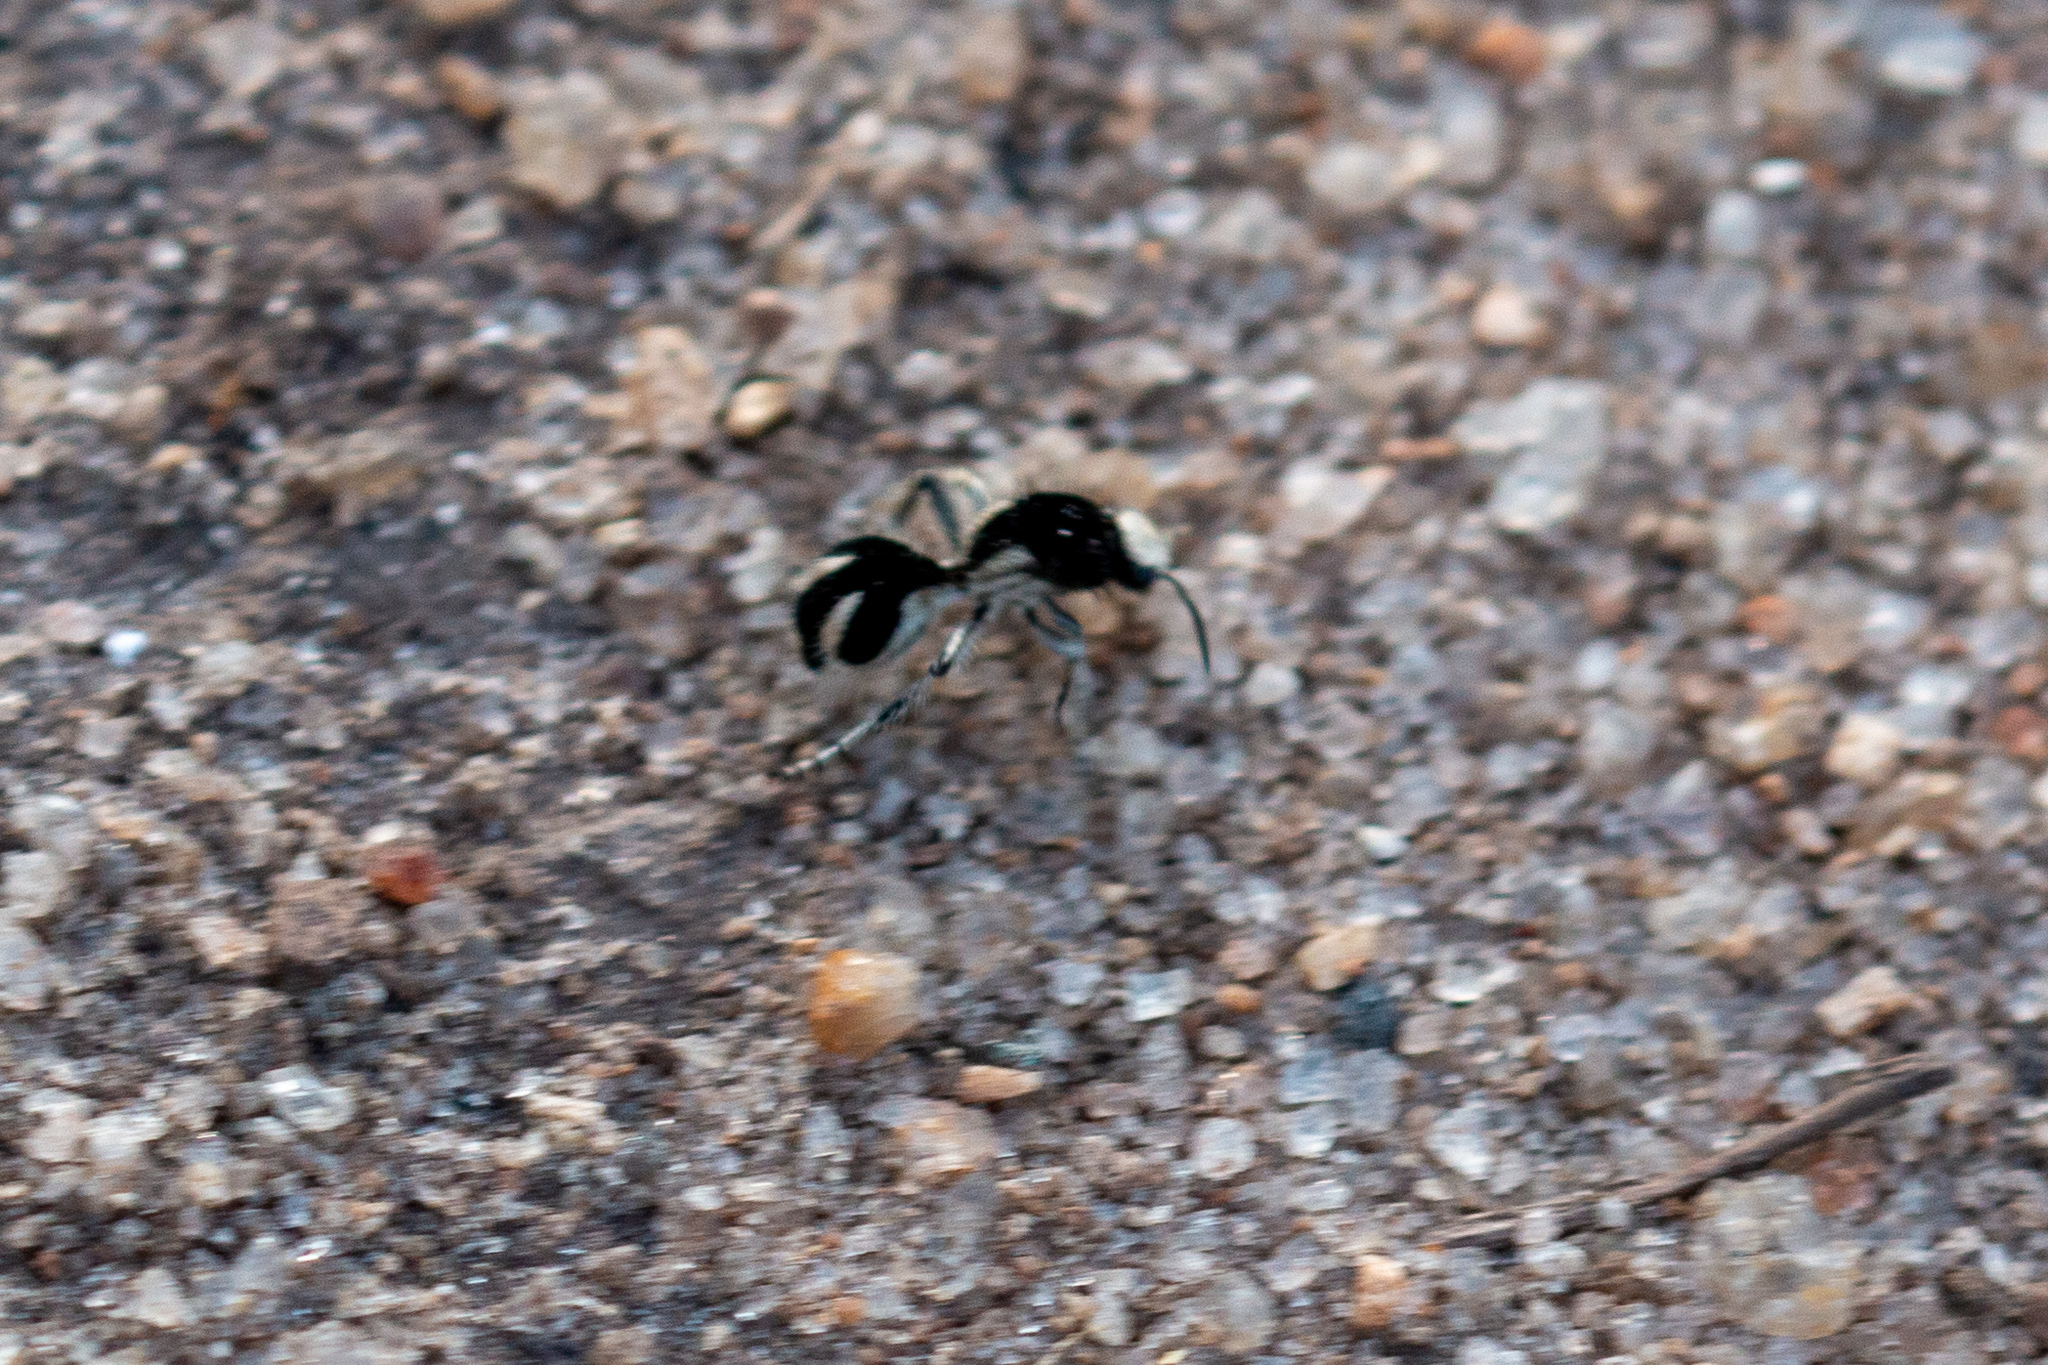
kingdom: Animalia
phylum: Arthropoda
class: Insecta
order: Hymenoptera
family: Mutillidae
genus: Traumatomutilla
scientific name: Traumatomutilla bifurca
